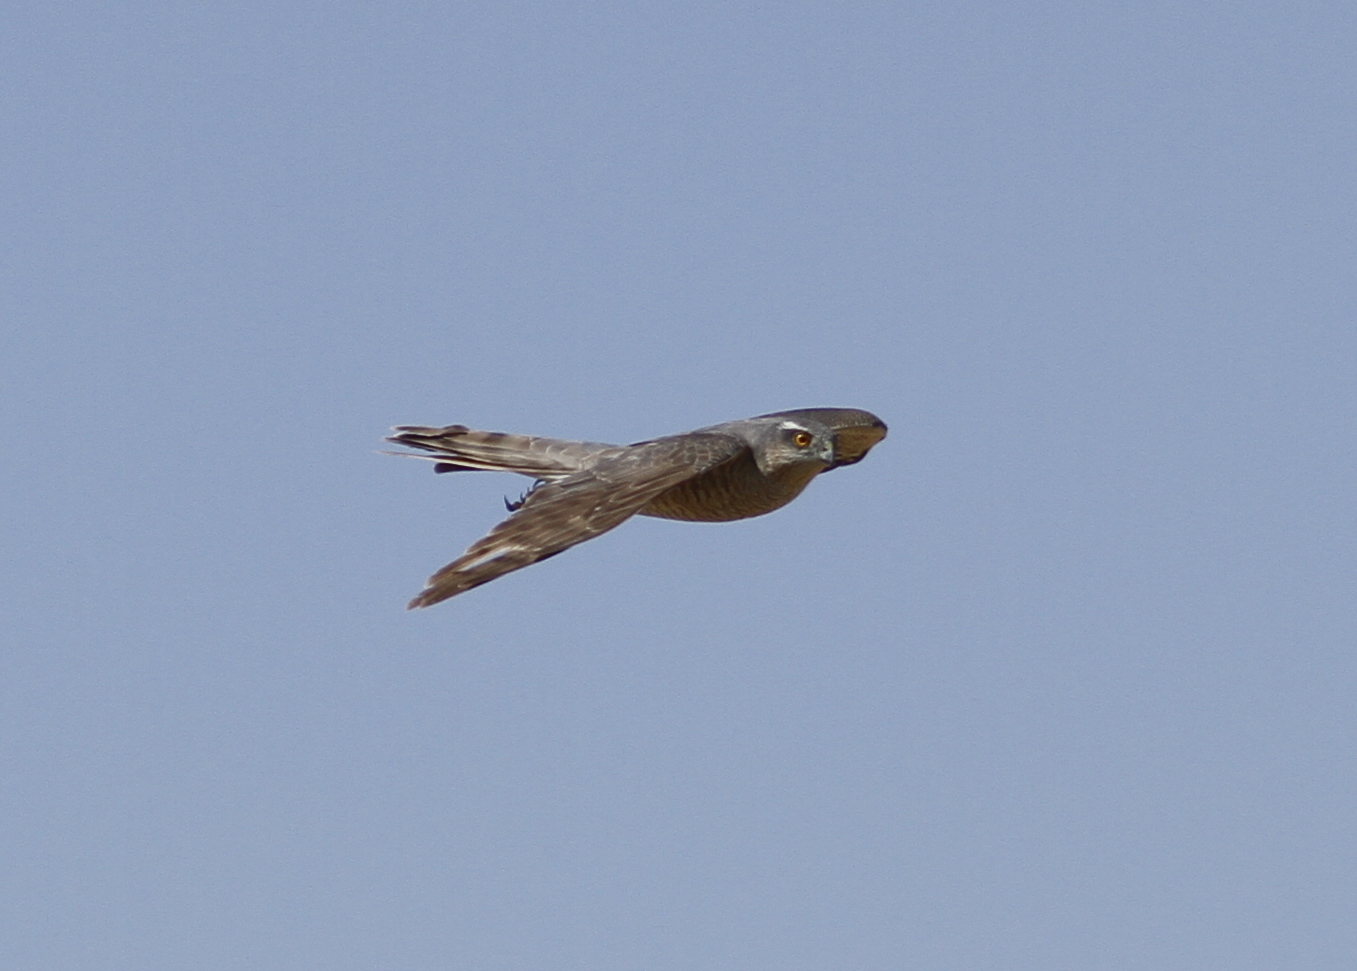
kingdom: Animalia
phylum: Chordata
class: Aves
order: Accipitriformes
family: Accipitridae
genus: Accipiter
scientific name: Accipiter nisus
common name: Eurasian sparrowhawk
